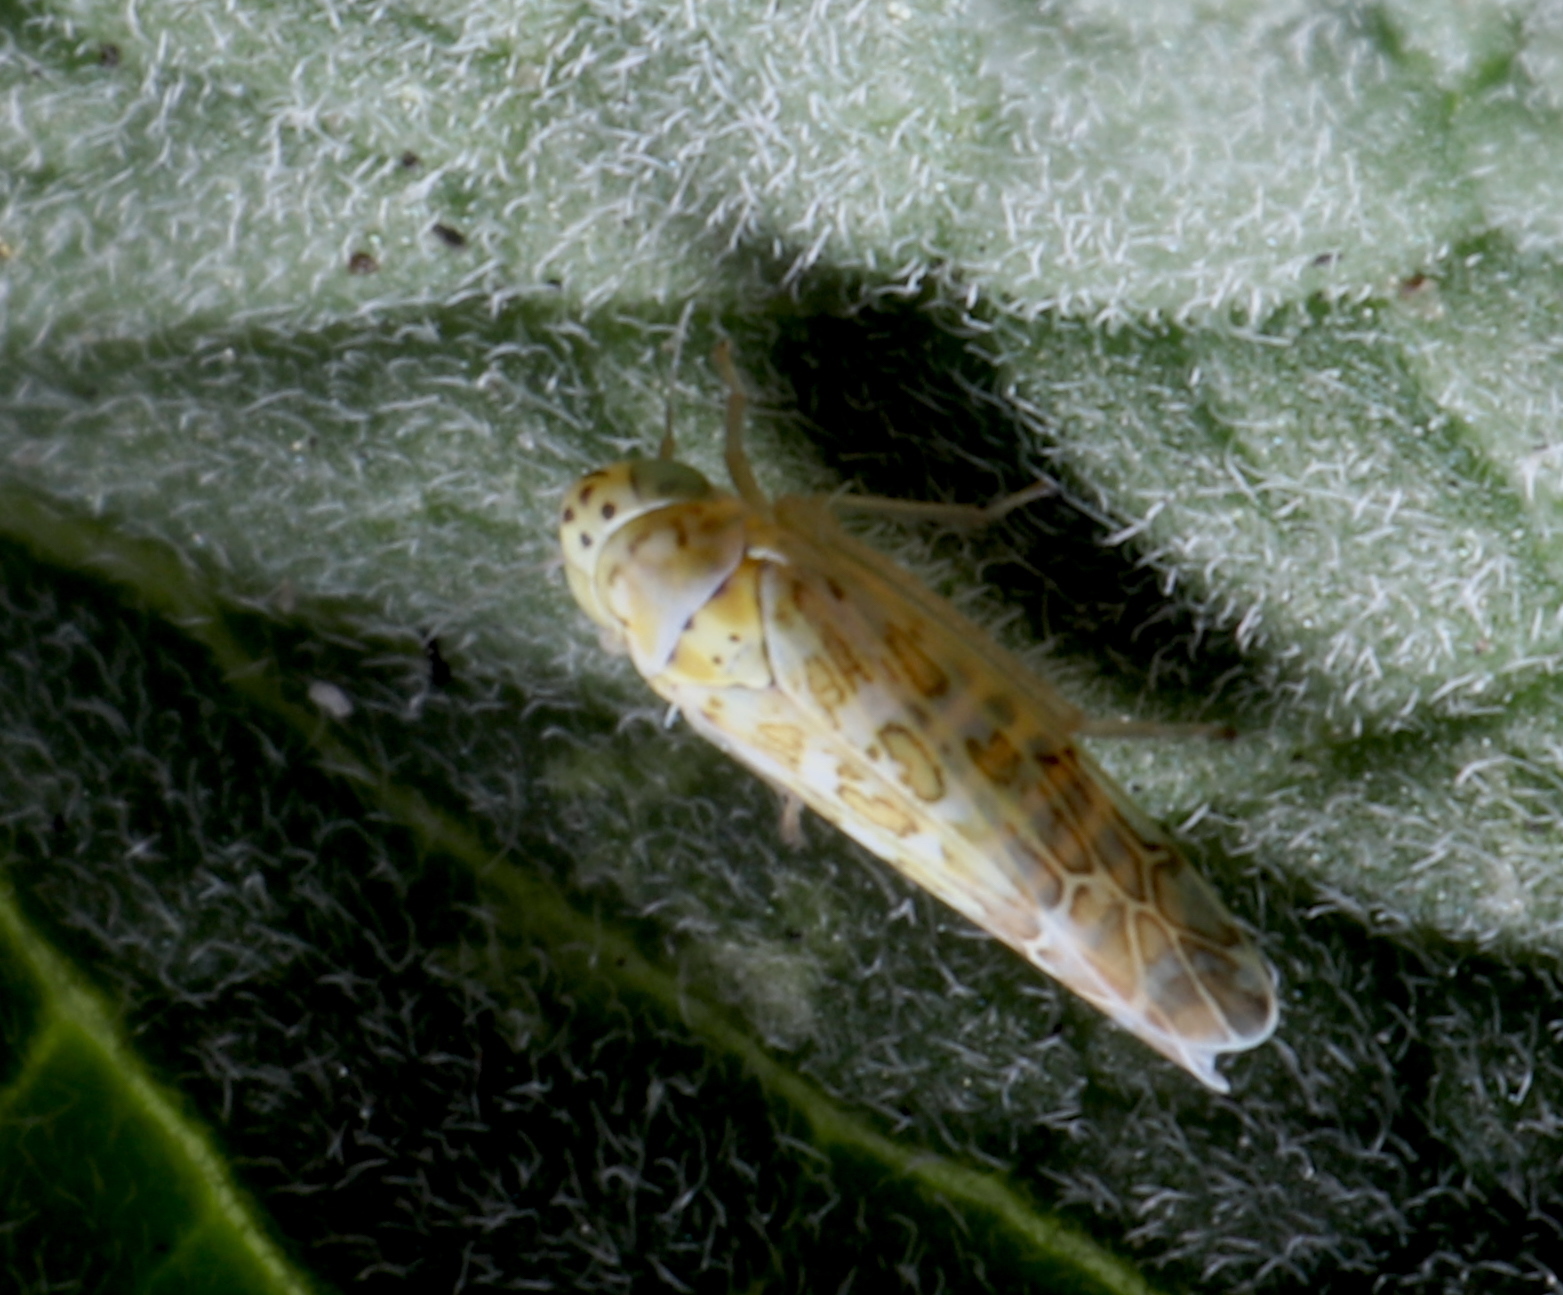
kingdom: Animalia
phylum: Arthropoda
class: Insecta
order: Hemiptera
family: Cicadellidae
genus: Eupteryx
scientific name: Eupteryx decemnotata
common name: Ligurian leafhopper
